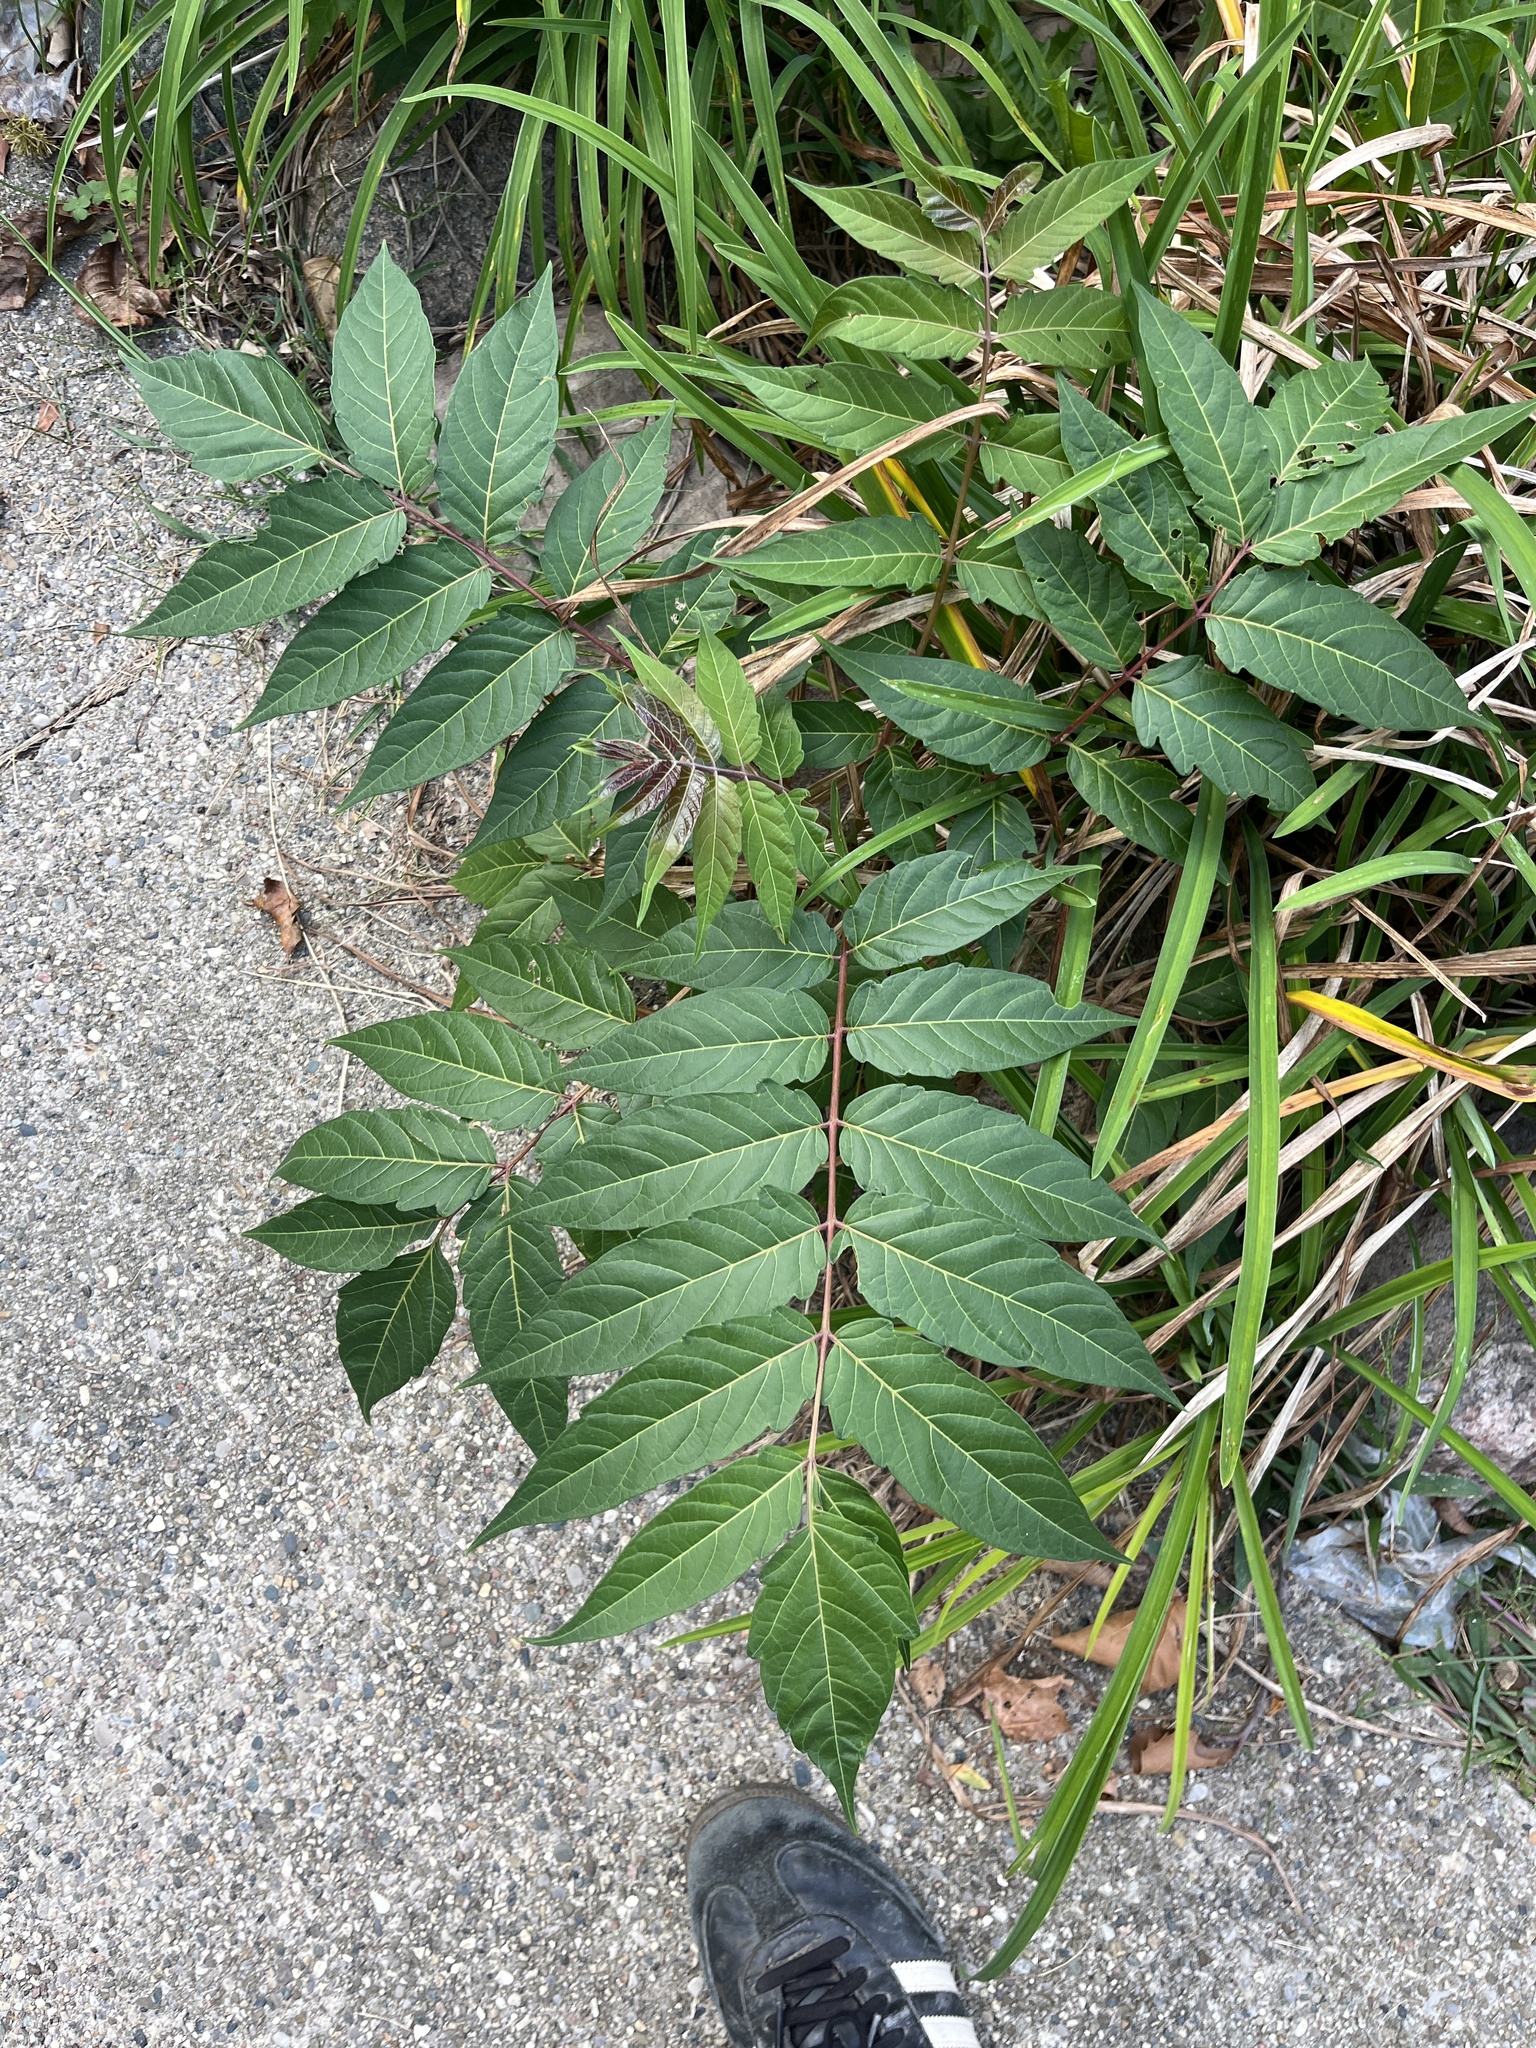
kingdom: Plantae
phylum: Tracheophyta
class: Magnoliopsida
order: Sapindales
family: Simaroubaceae
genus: Ailanthus
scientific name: Ailanthus altissima
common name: Tree-of-heaven
